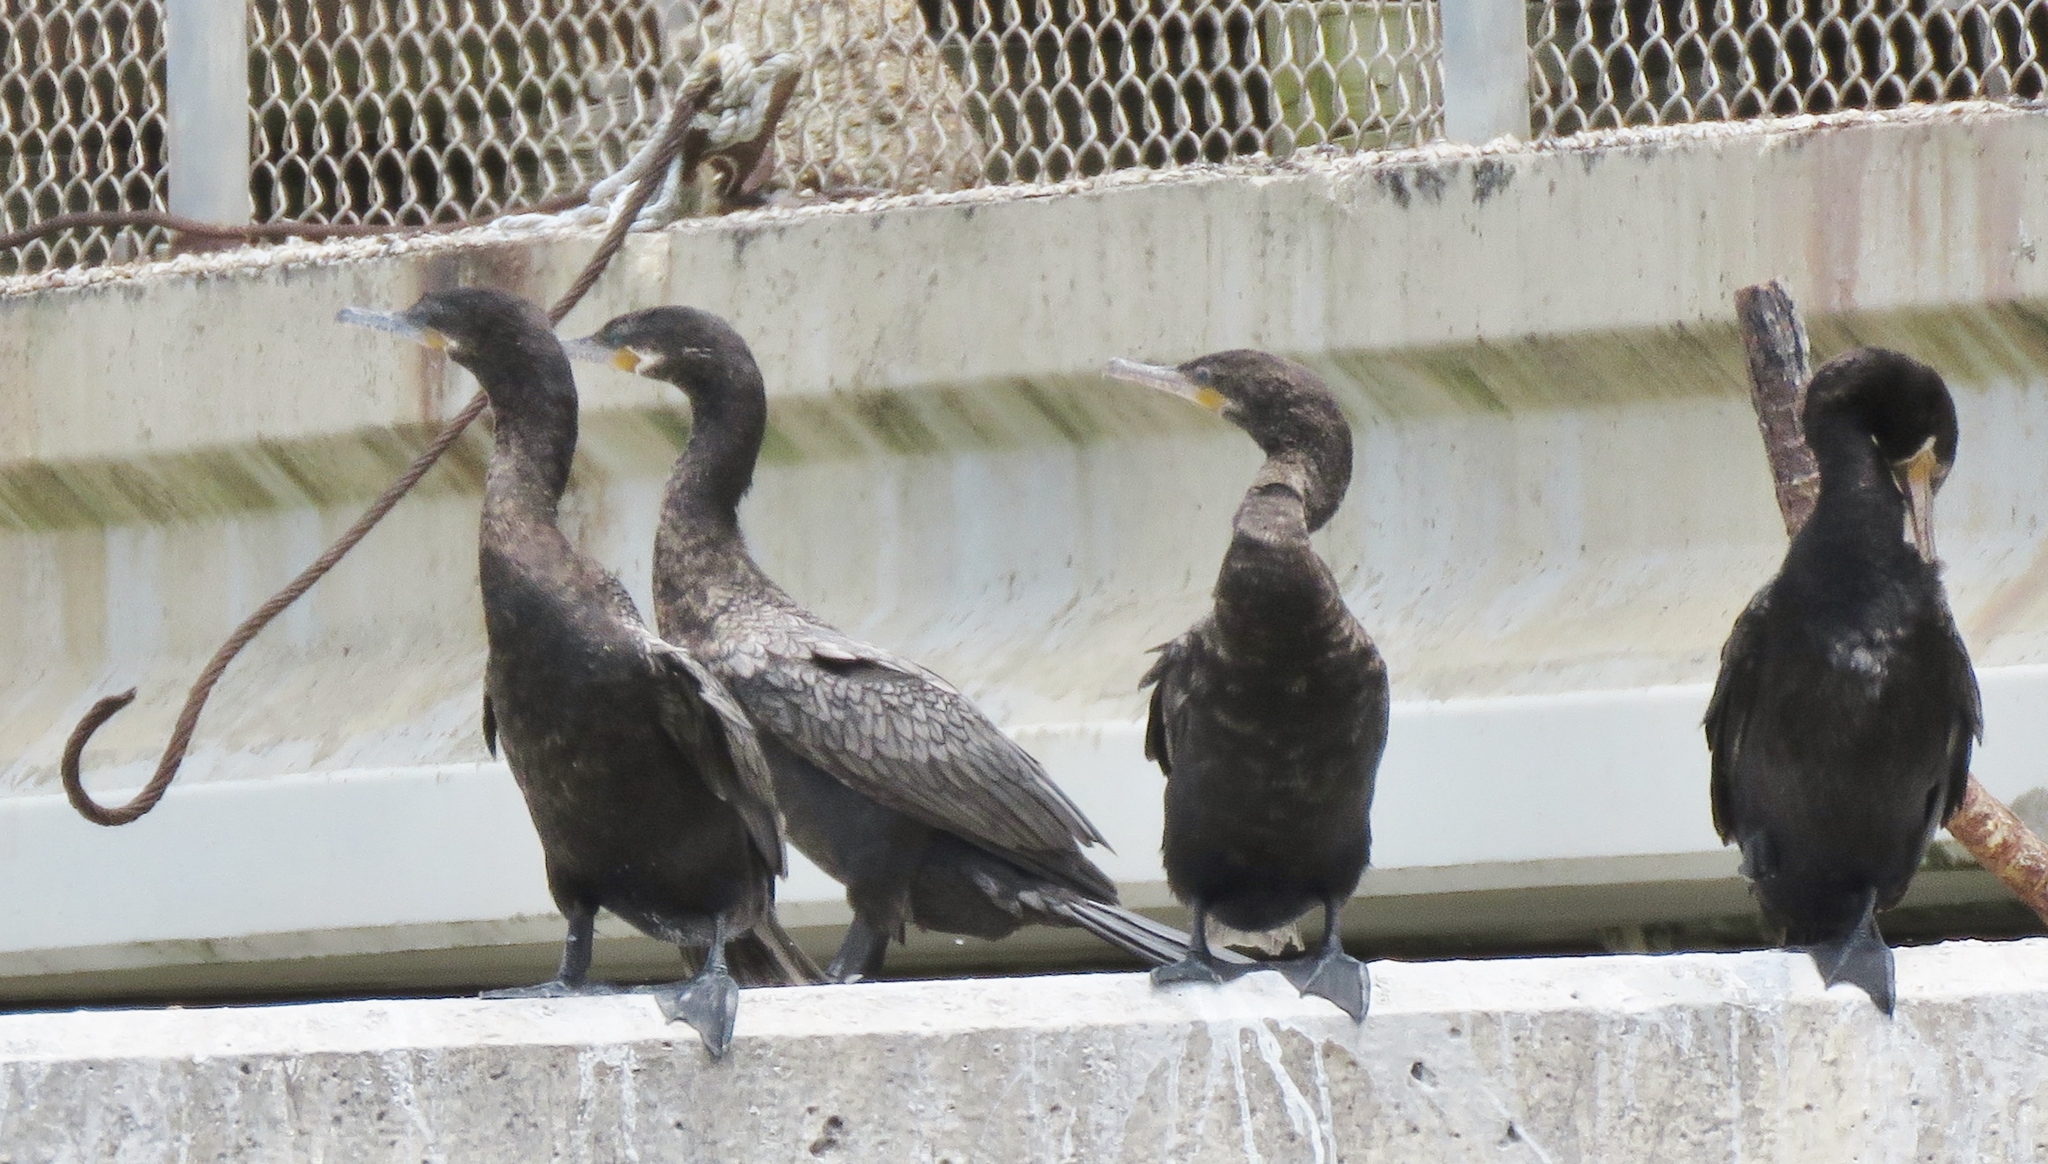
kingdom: Animalia
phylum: Chordata
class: Aves
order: Suliformes
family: Phalacrocoracidae
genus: Phalacrocorax
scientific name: Phalacrocorax brasilianus
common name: Neotropic cormorant
